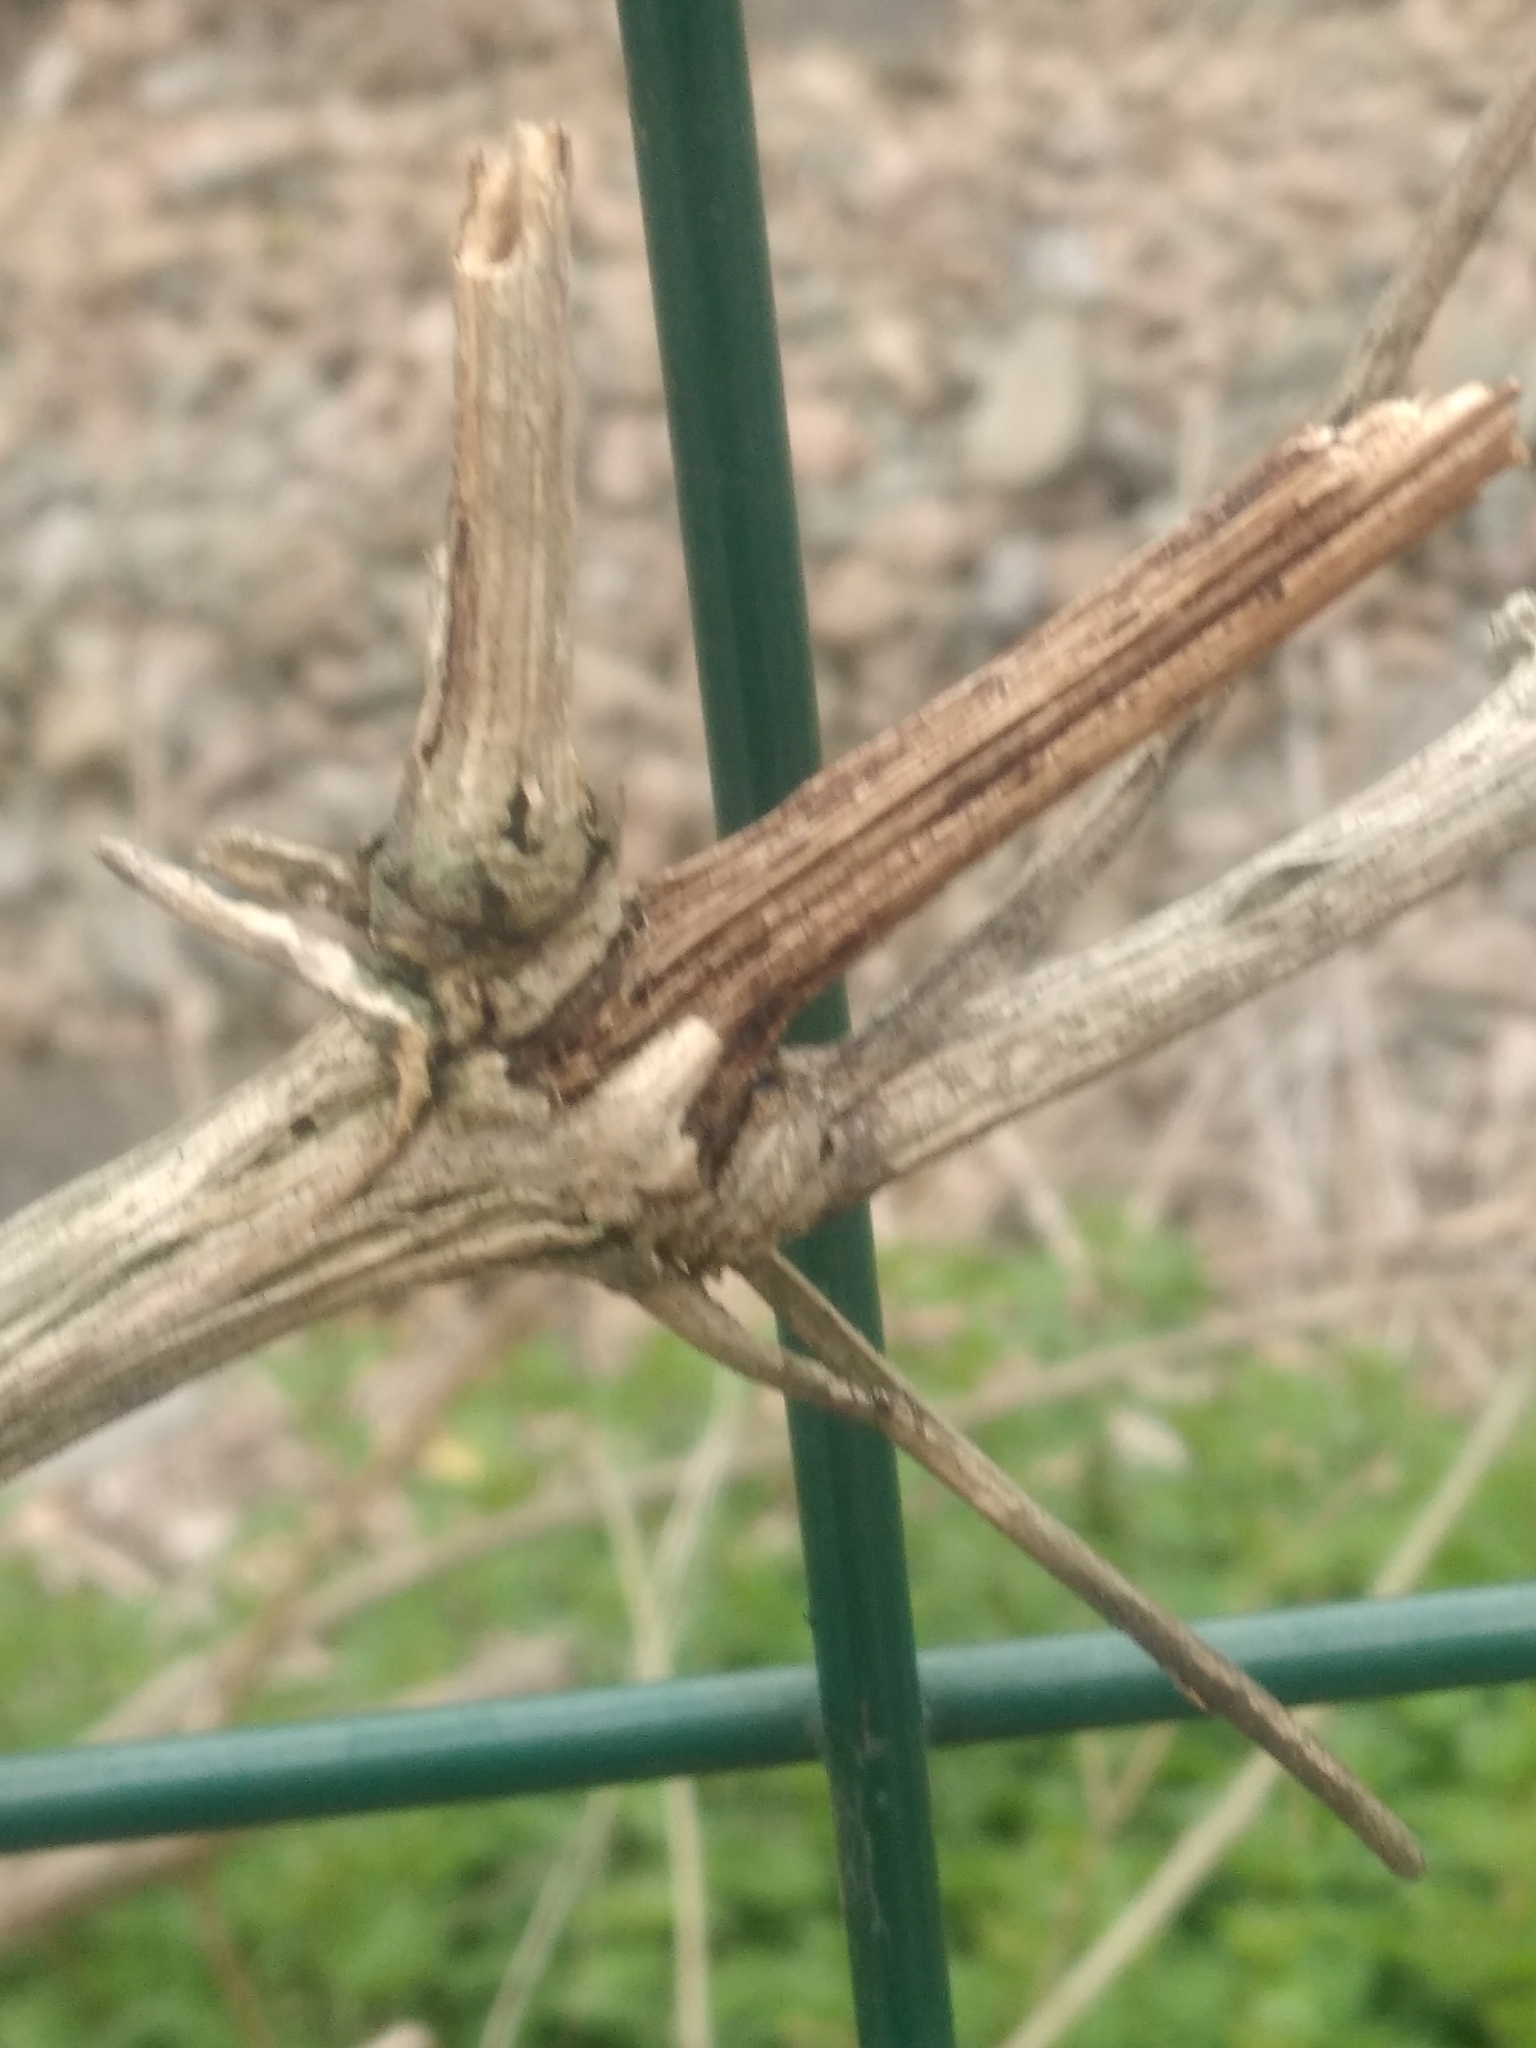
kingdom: Plantae
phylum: Tracheophyta
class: Magnoliopsida
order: Ranunculales
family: Ranunculaceae
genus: Clematis
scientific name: Clematis vitalba
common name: Evergreen clematis
